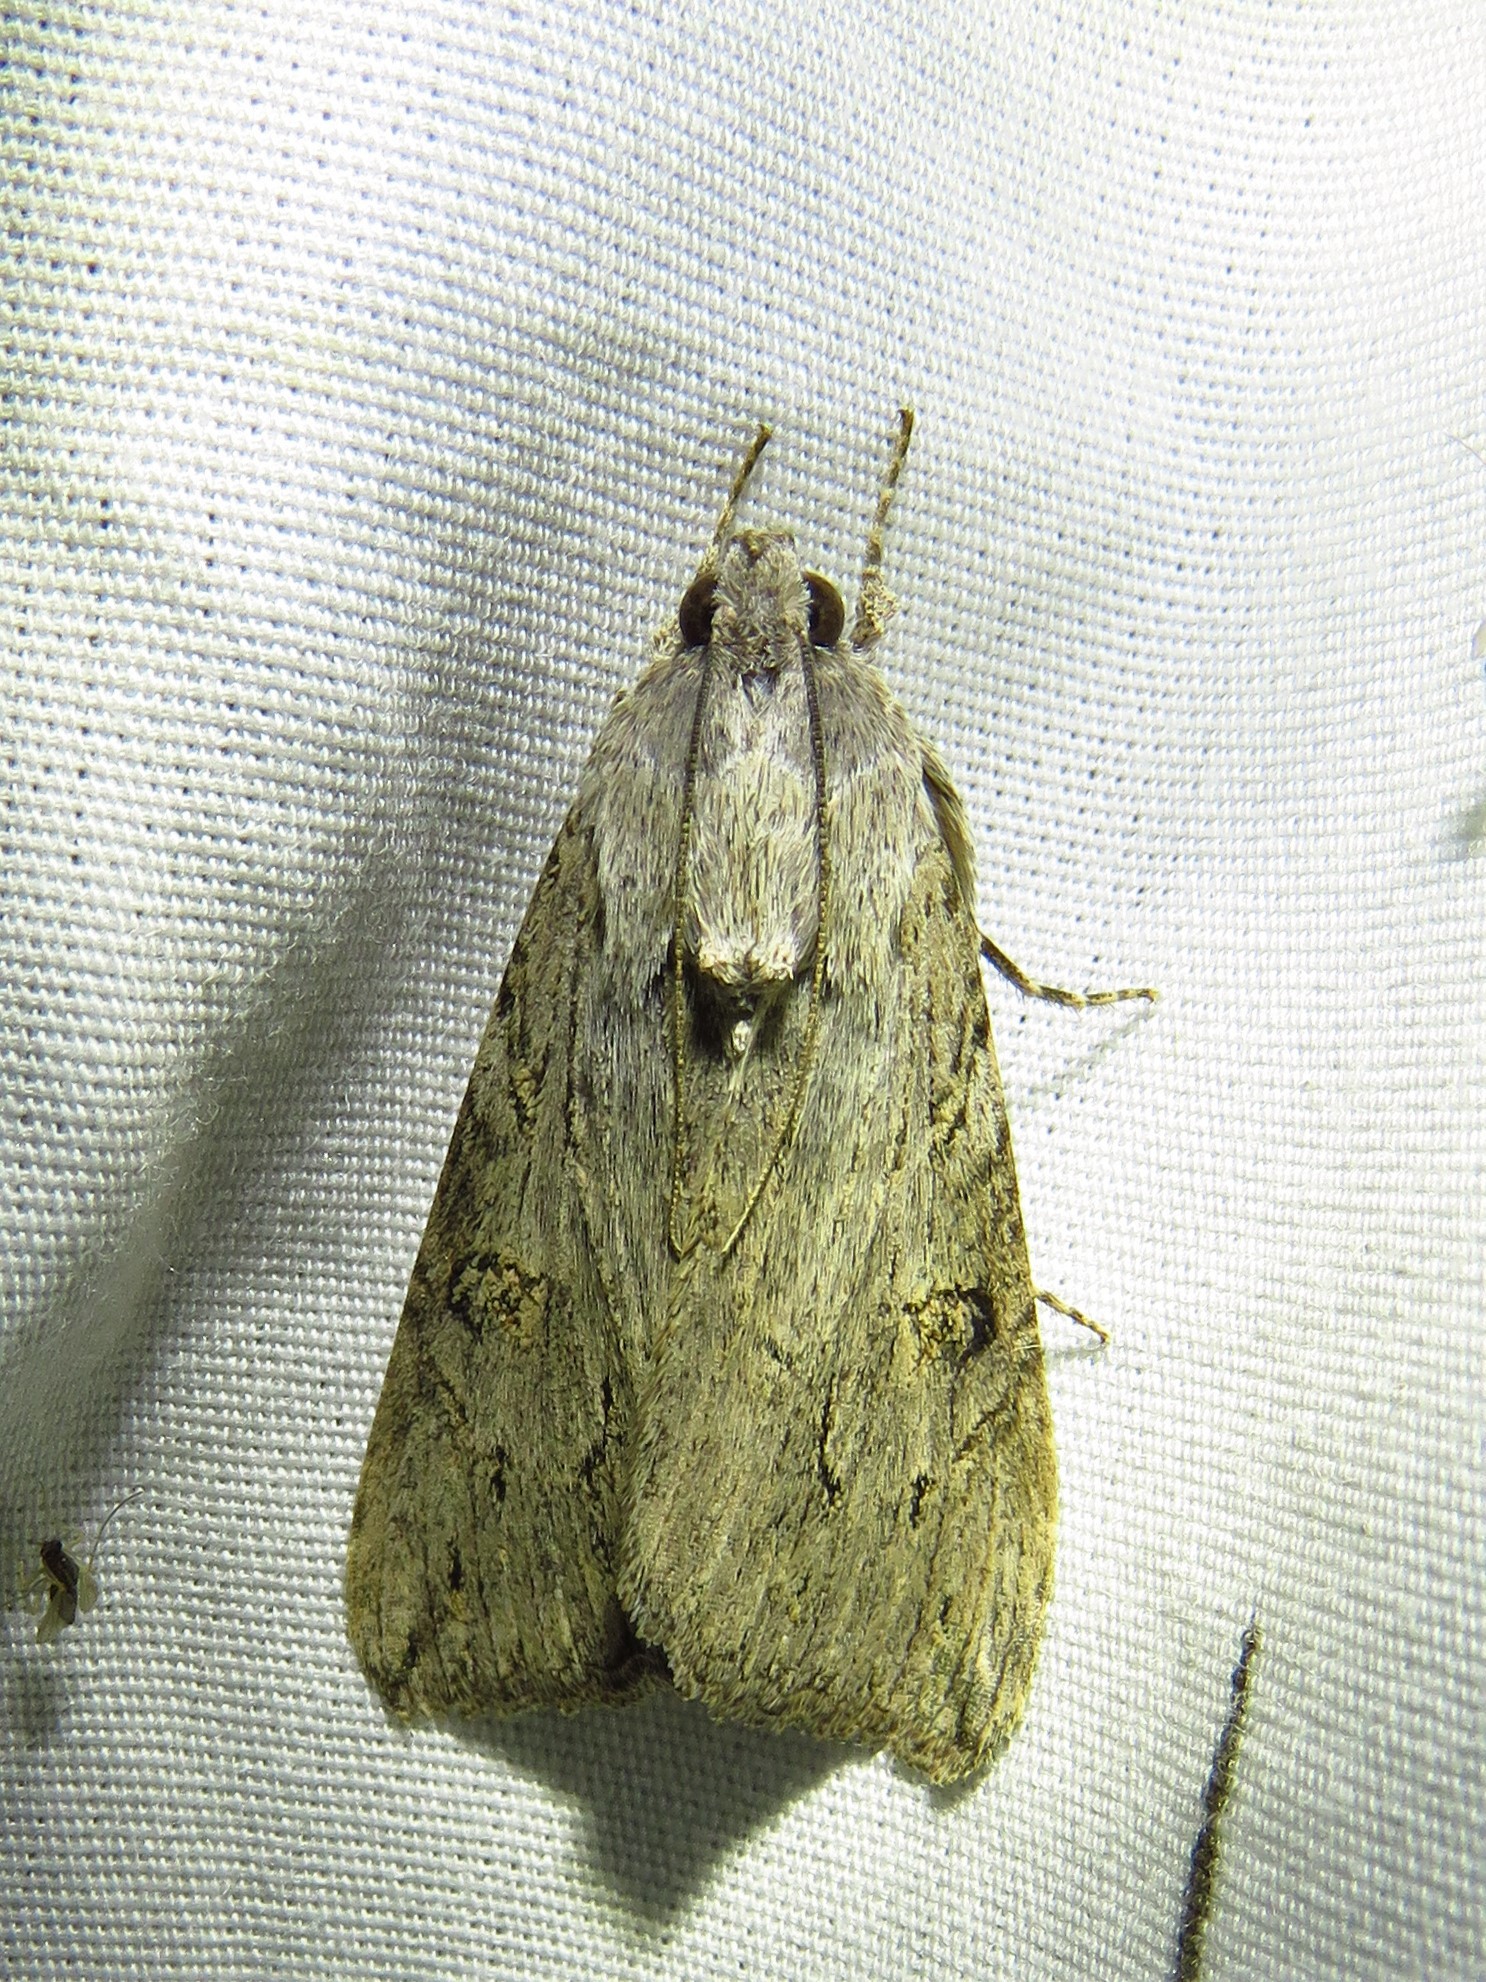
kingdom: Animalia
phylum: Arthropoda
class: Insecta
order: Lepidoptera
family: Erebidae
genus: Melipotis
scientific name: Melipotis jucunda
